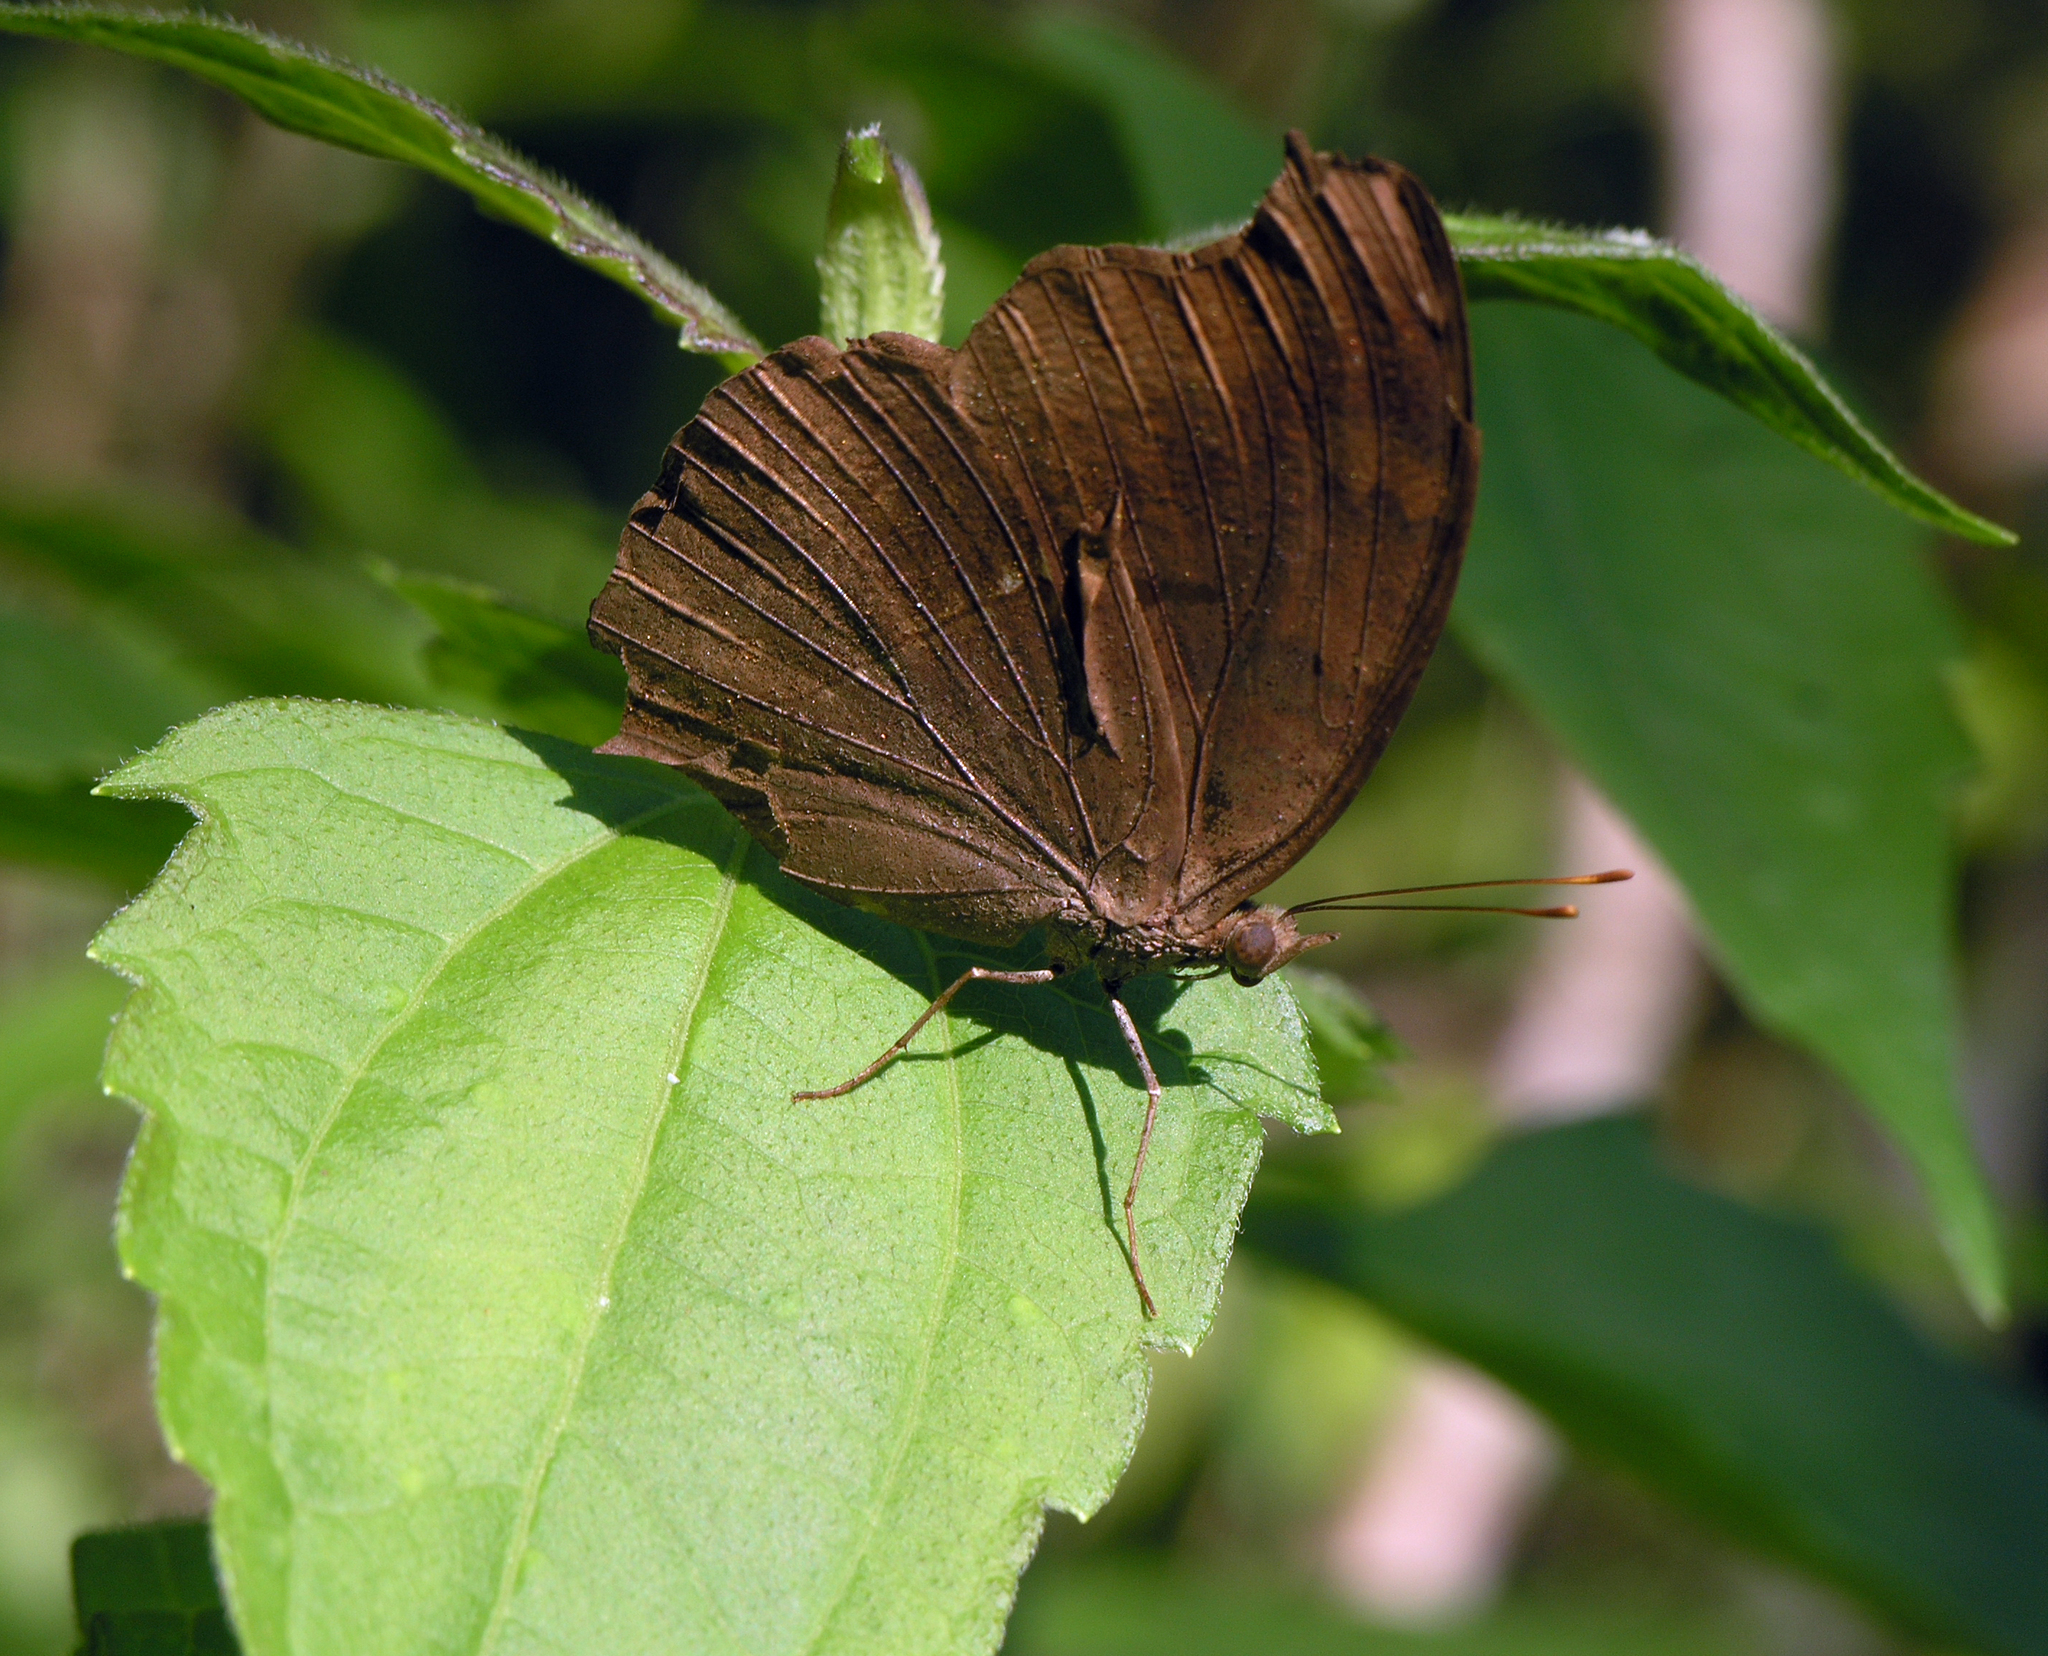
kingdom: Animalia
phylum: Arthropoda
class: Insecta
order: Lepidoptera
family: Nymphalidae
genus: Junonia
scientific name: Junonia iphita
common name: Chocolate pansy
